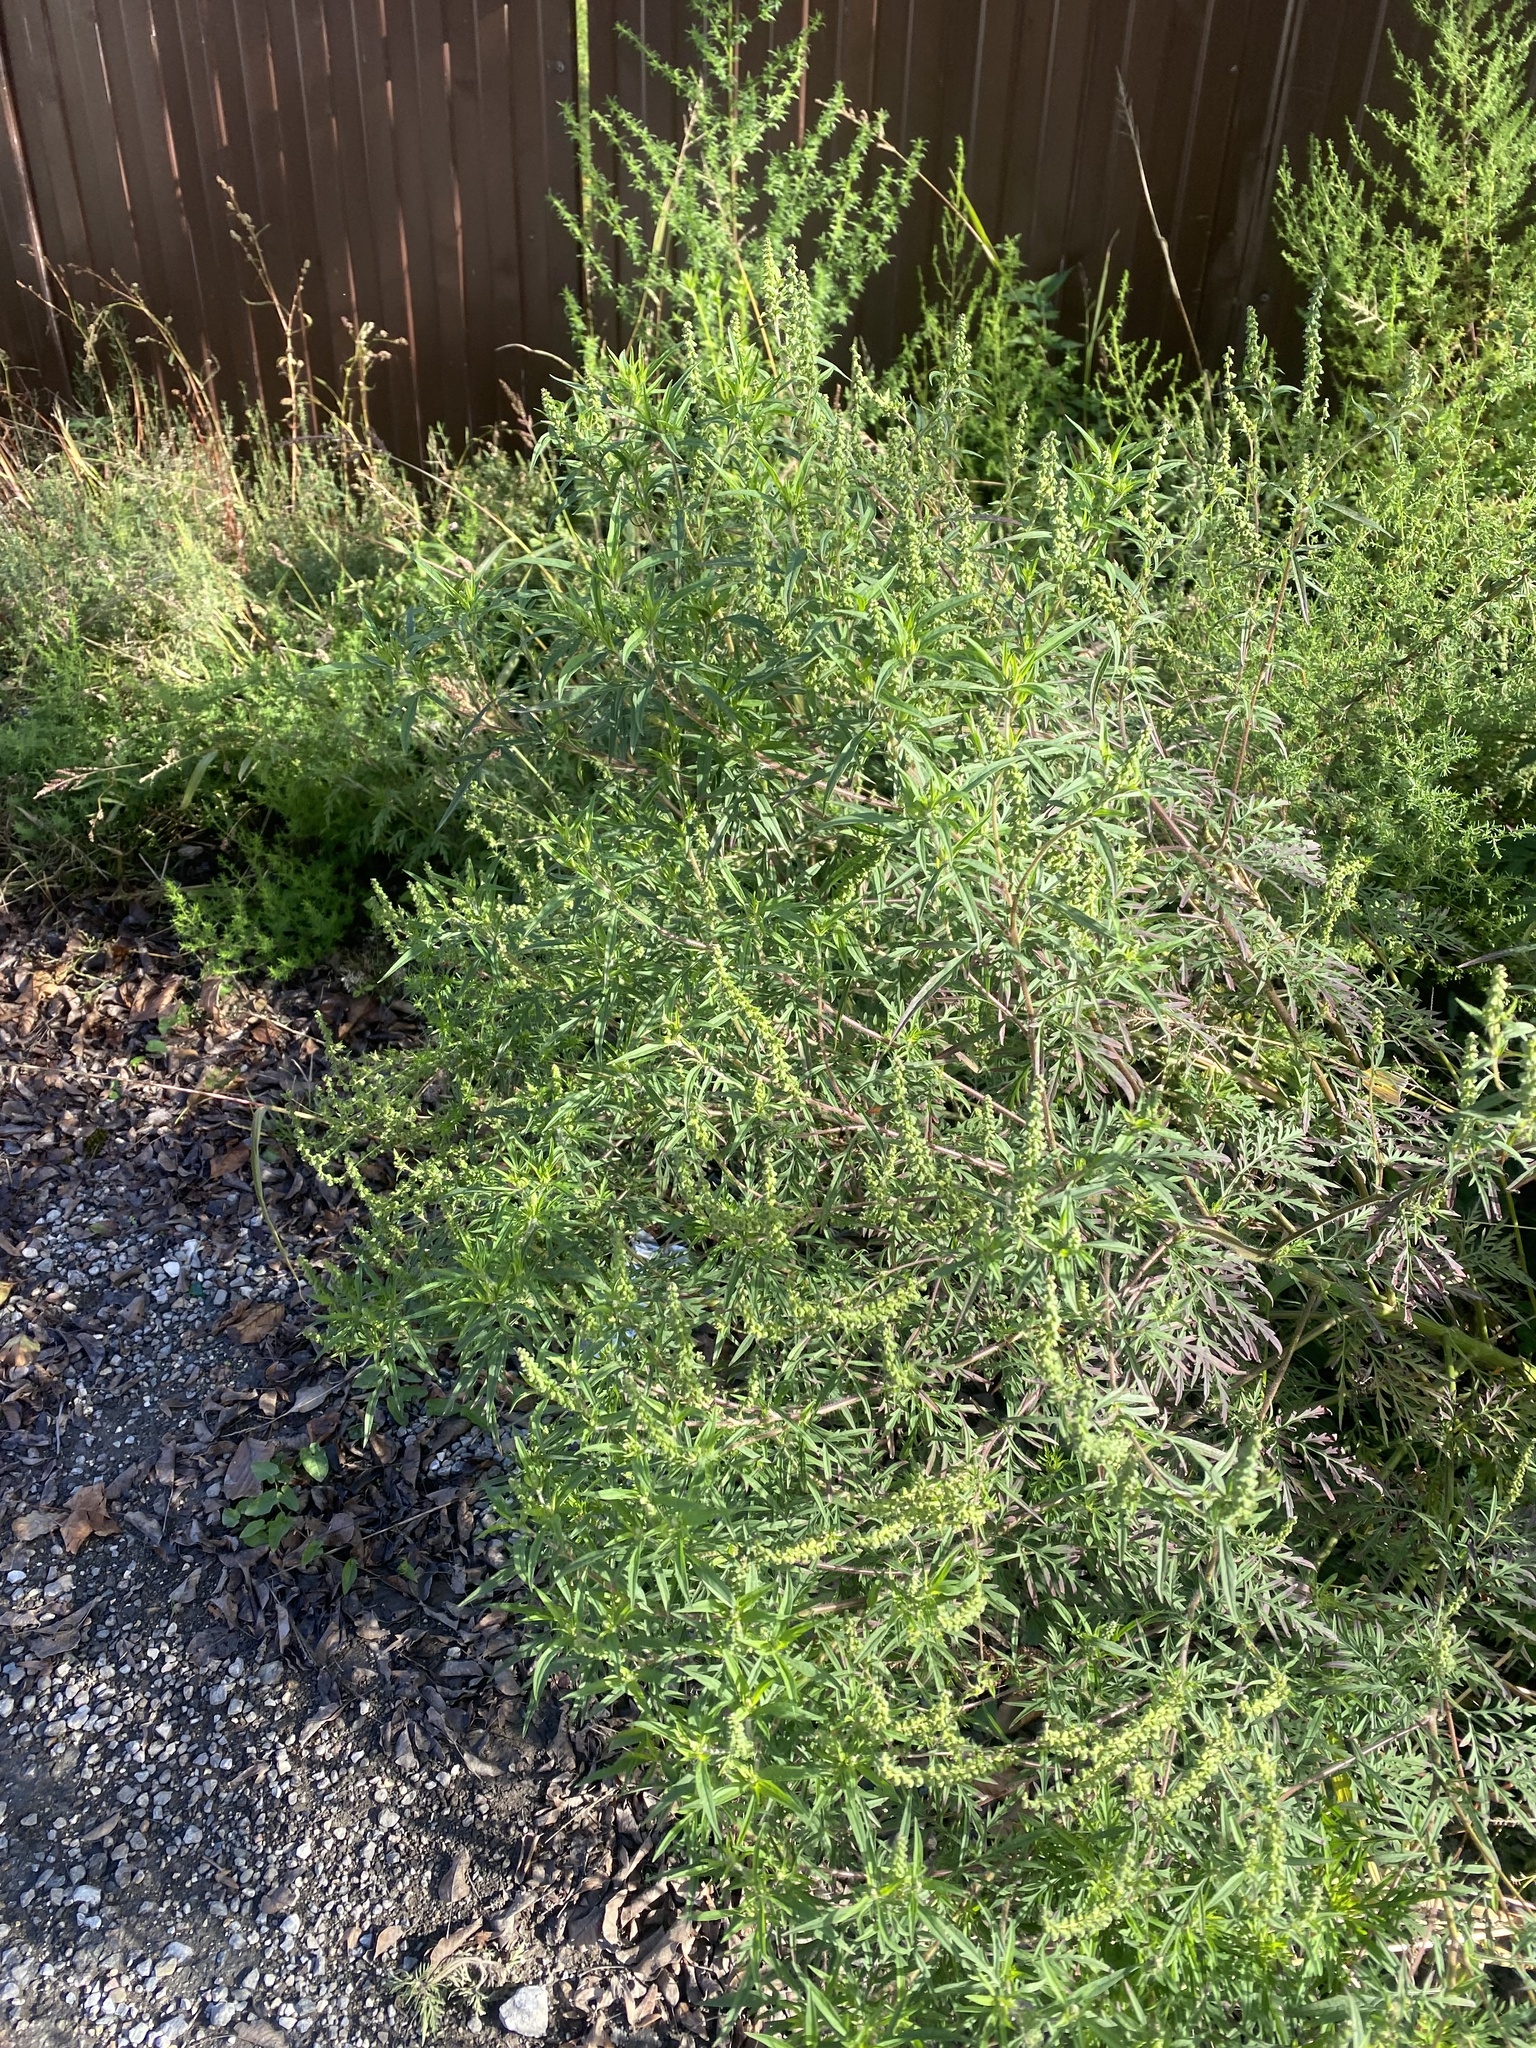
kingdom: Plantae
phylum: Tracheophyta
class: Magnoliopsida
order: Asterales
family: Asteraceae
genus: Ambrosia
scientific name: Ambrosia artemisiifolia
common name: Annual ragweed
